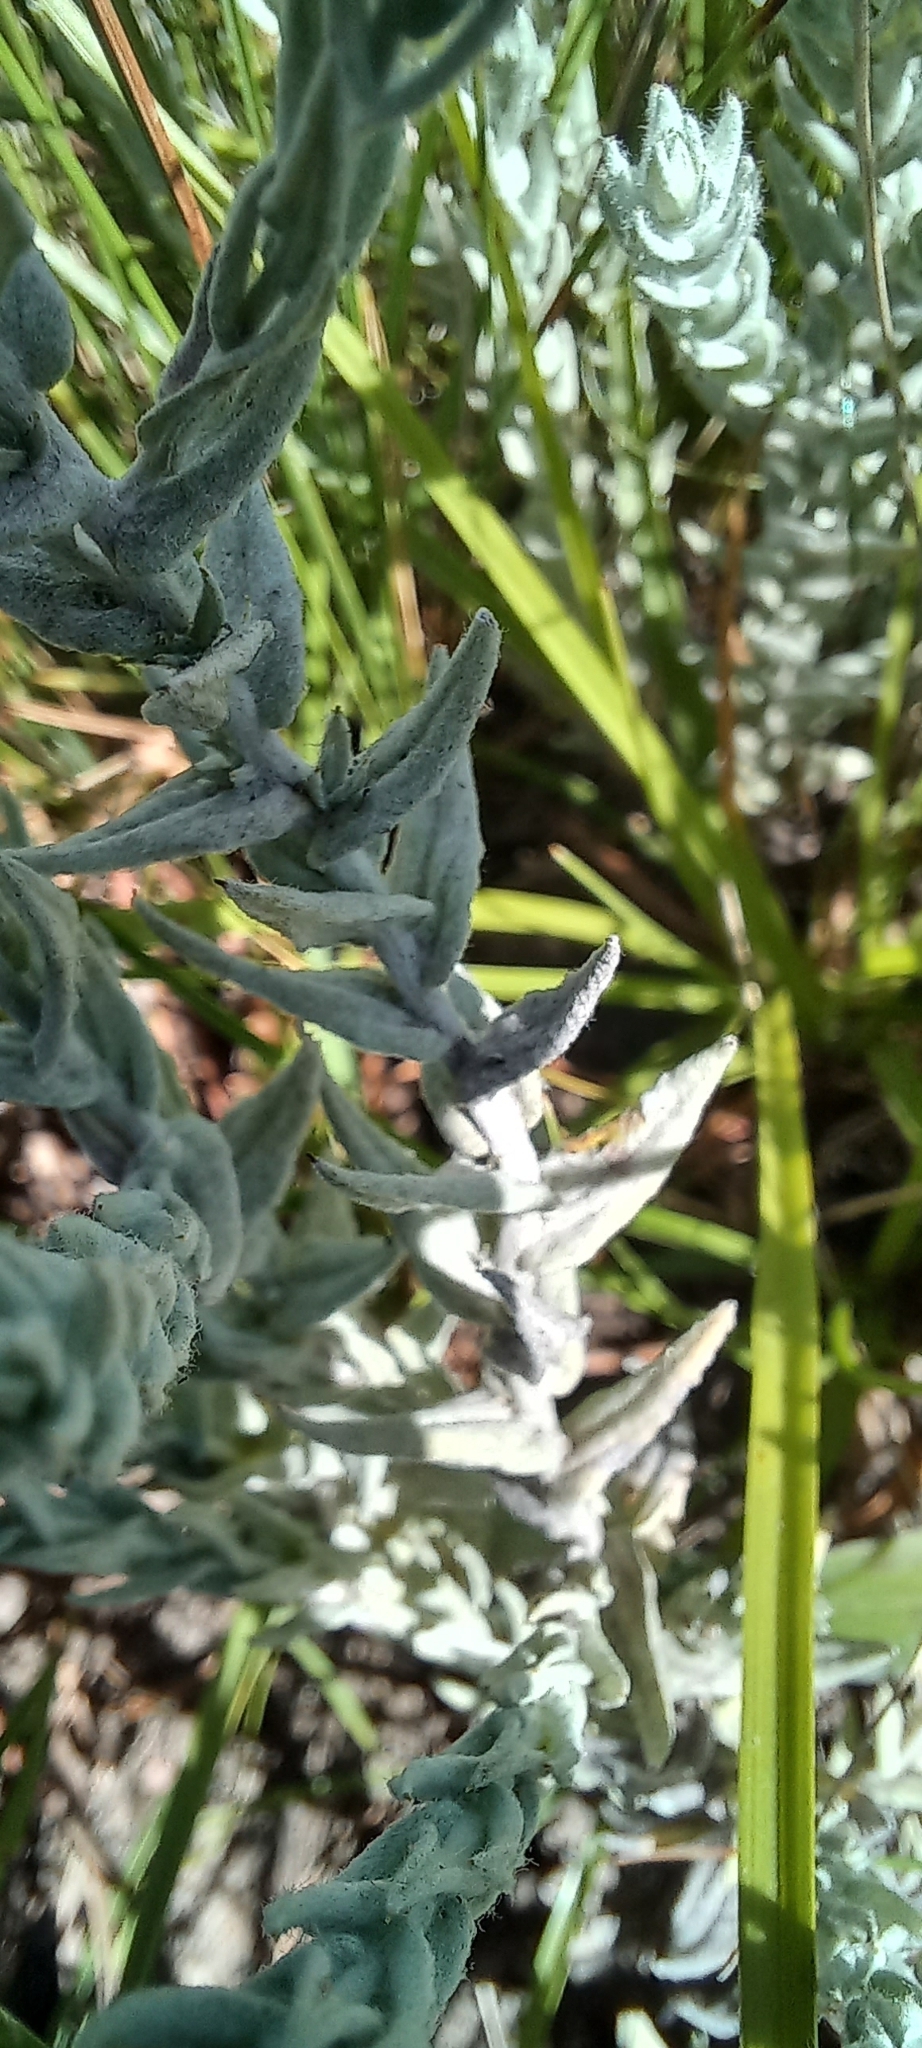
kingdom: Plantae
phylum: Tracheophyta
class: Magnoliopsida
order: Asterales
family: Asteraceae
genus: Helichrysum
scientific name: Helichrysum aureonitens
